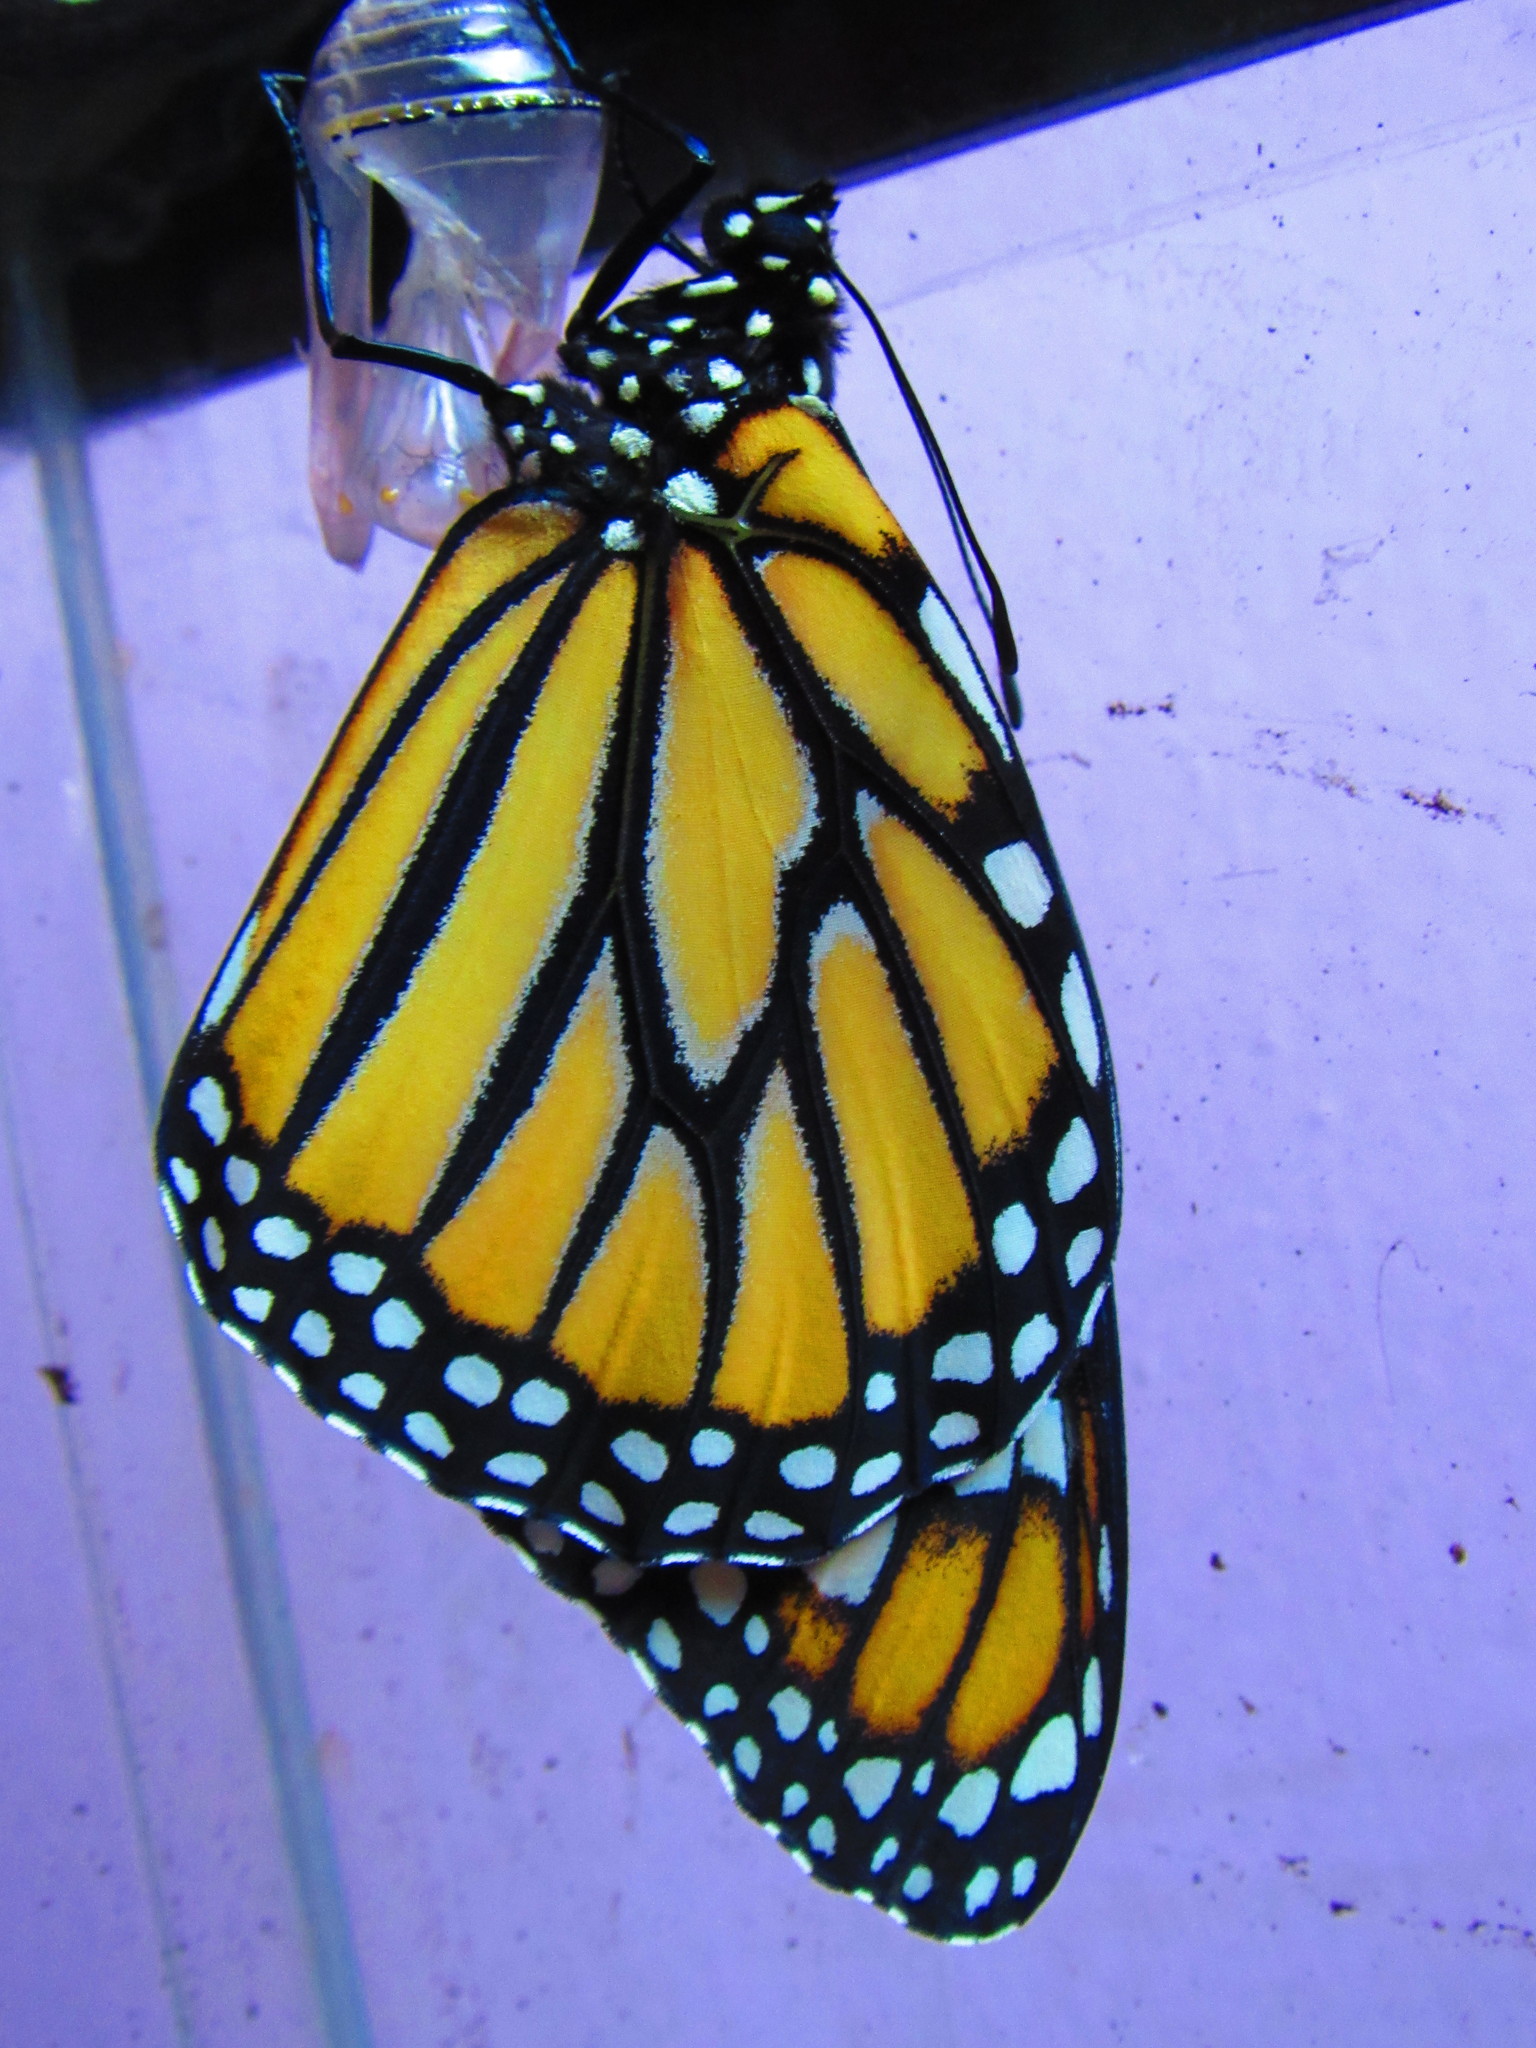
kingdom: Animalia
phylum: Arthropoda
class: Insecta
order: Lepidoptera
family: Nymphalidae
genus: Danaus
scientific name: Danaus plexippus
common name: Monarch
